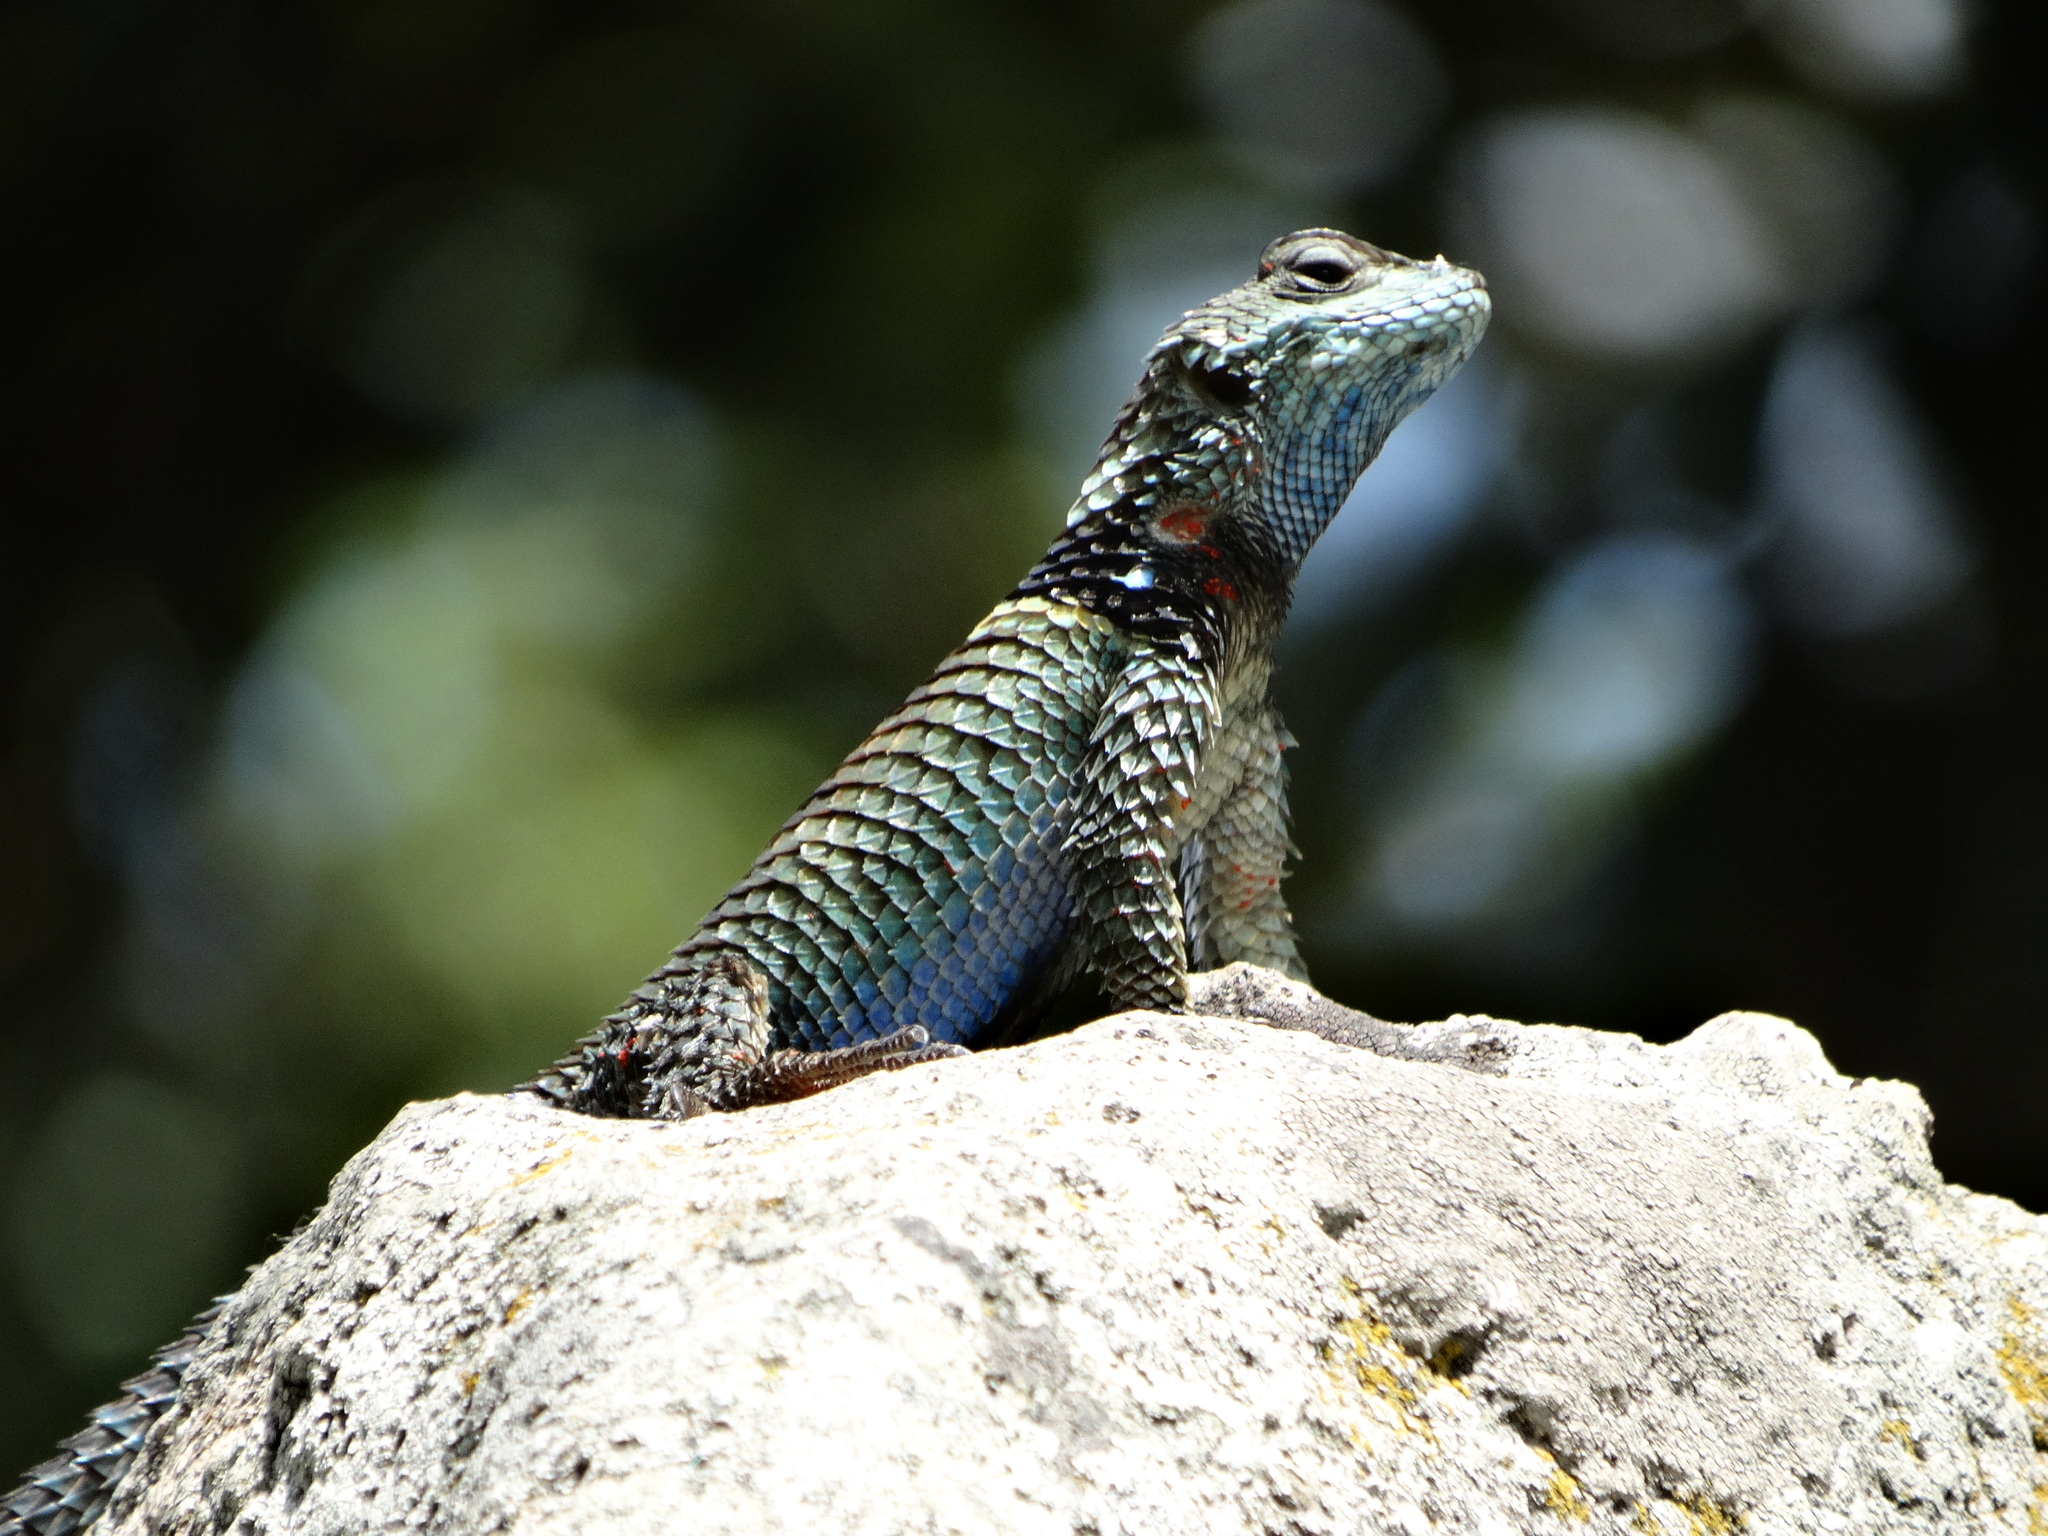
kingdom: Animalia
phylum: Chordata
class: Squamata
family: Phrynosomatidae
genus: Sceloporus
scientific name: Sceloporus torquatus
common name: Central plateau torquate lizard [melanogaster]
